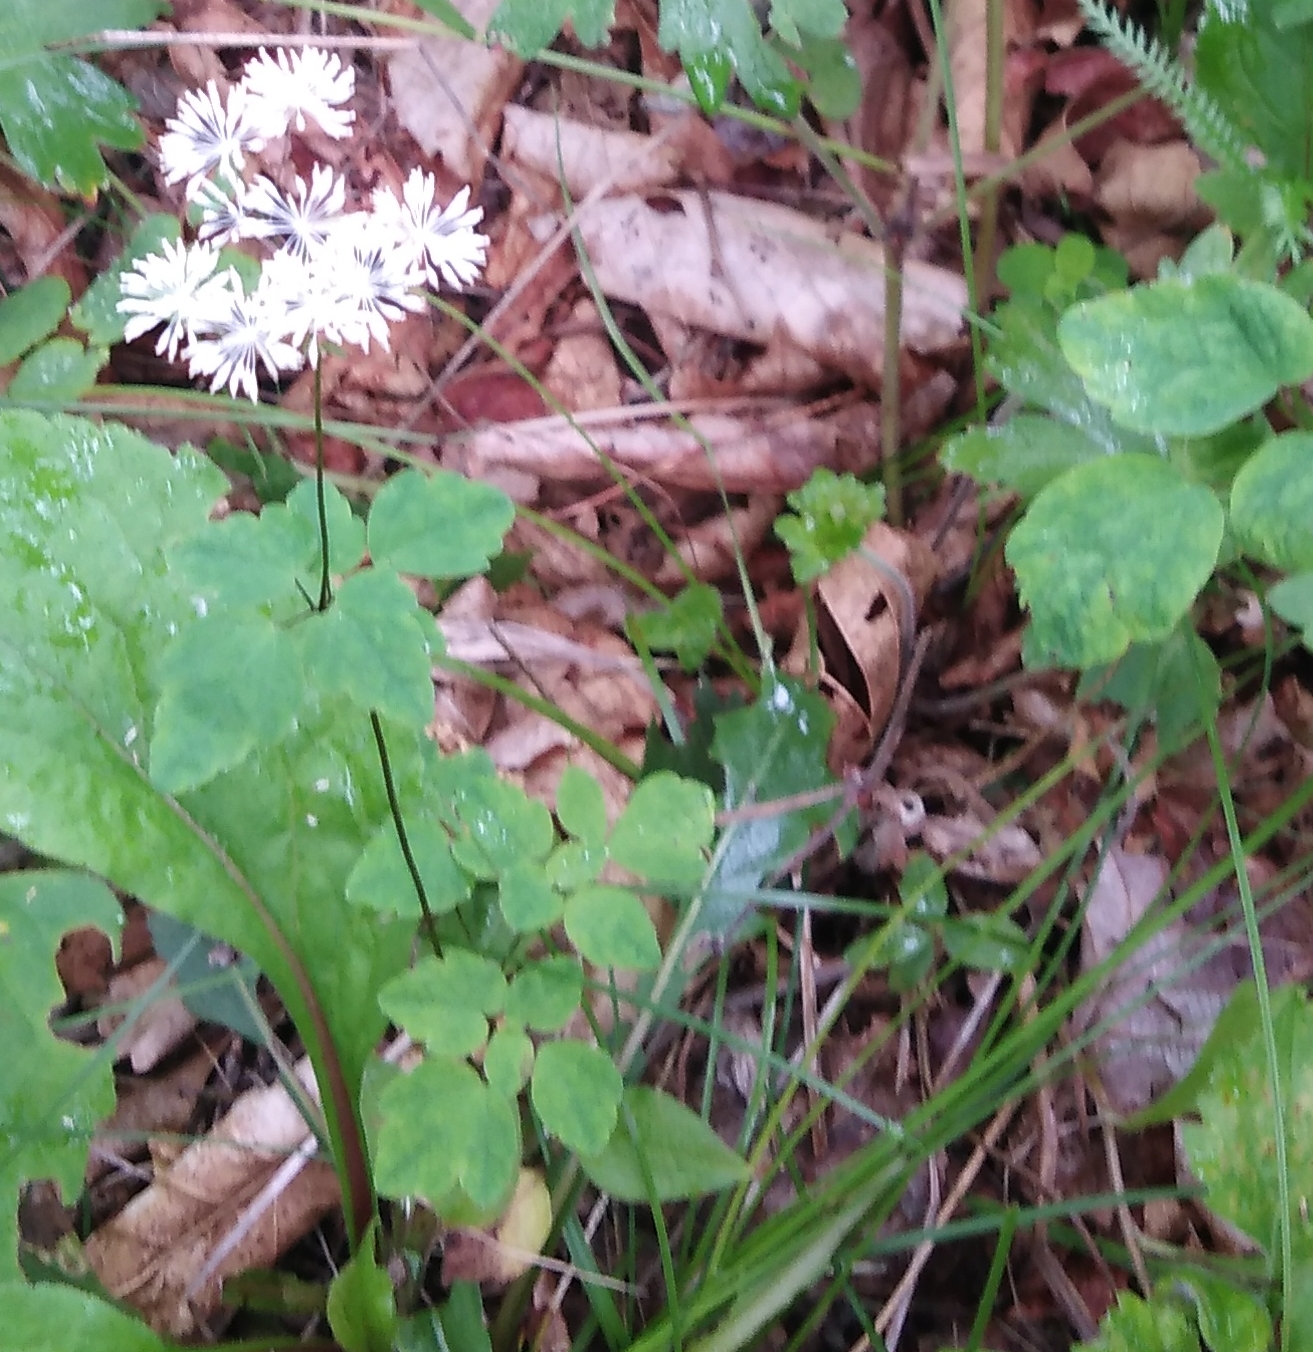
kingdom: Plantae
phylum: Tracheophyta
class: Magnoliopsida
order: Ranunculales
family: Ranunculaceae
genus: Thalictrum
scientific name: Thalictrum tuberiferum
